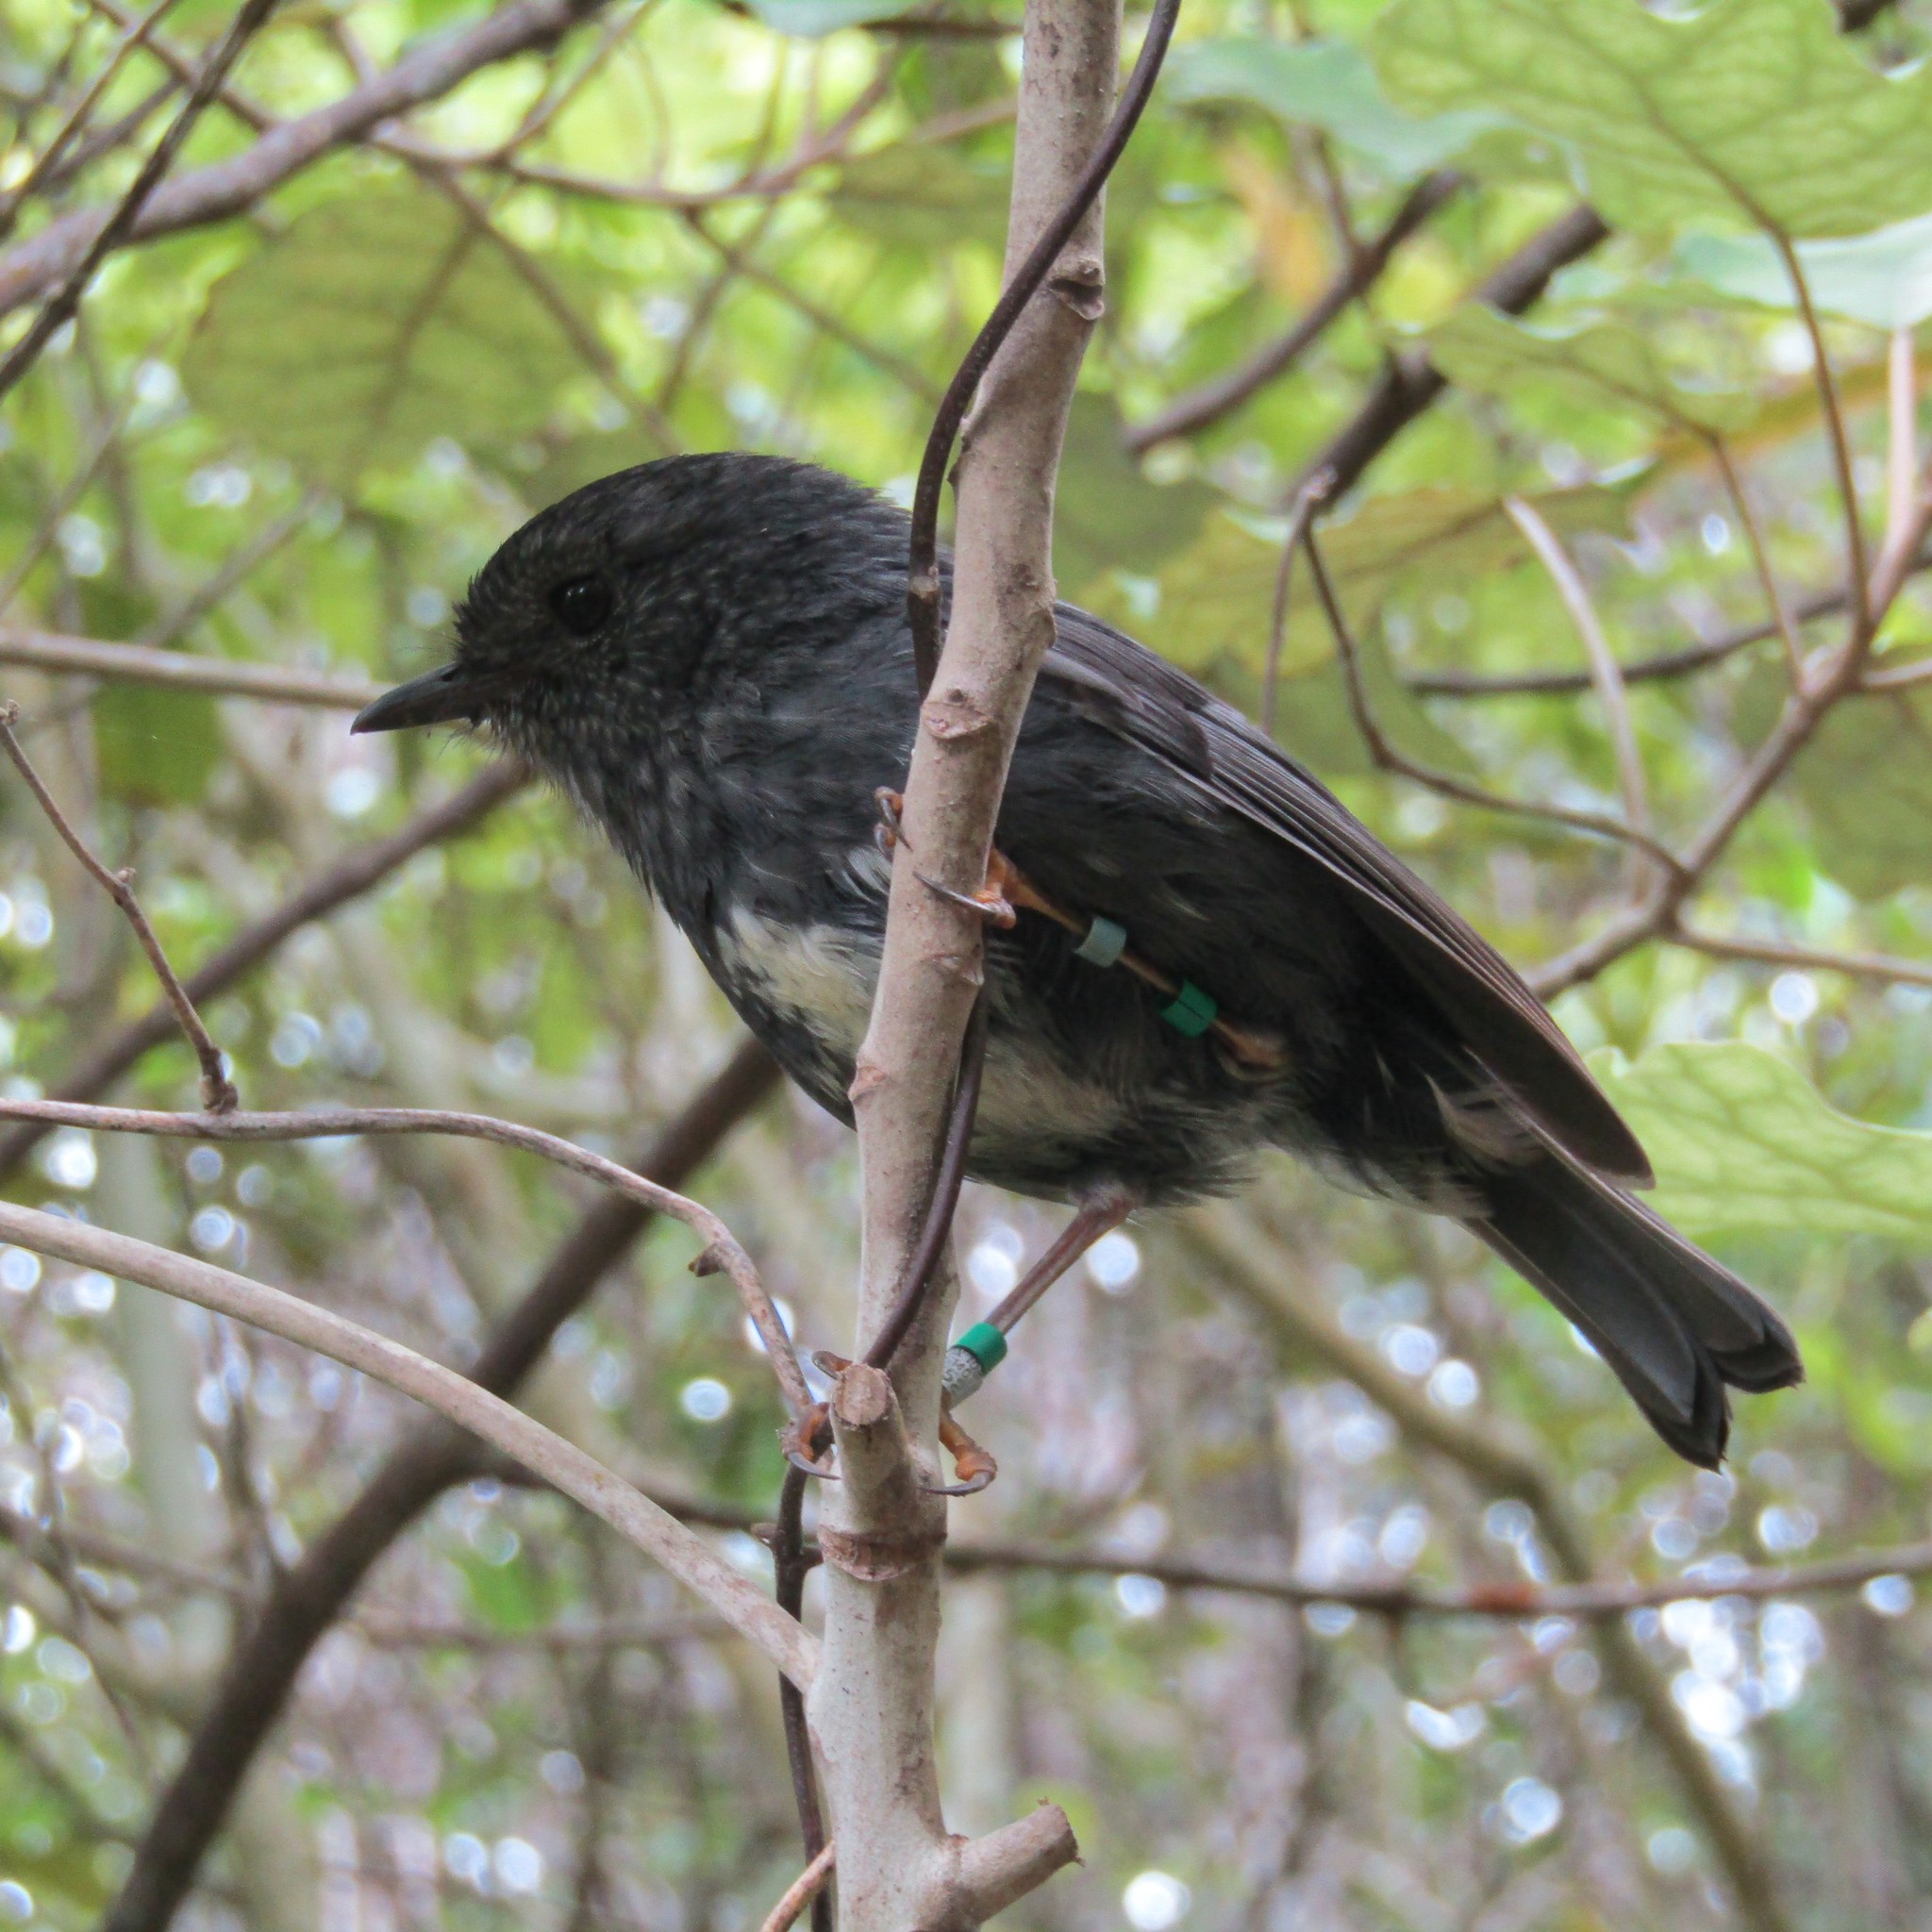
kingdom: Animalia
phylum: Chordata
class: Aves
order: Passeriformes
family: Petroicidae
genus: Petroica
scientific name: Petroica australis
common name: New zealand robin
